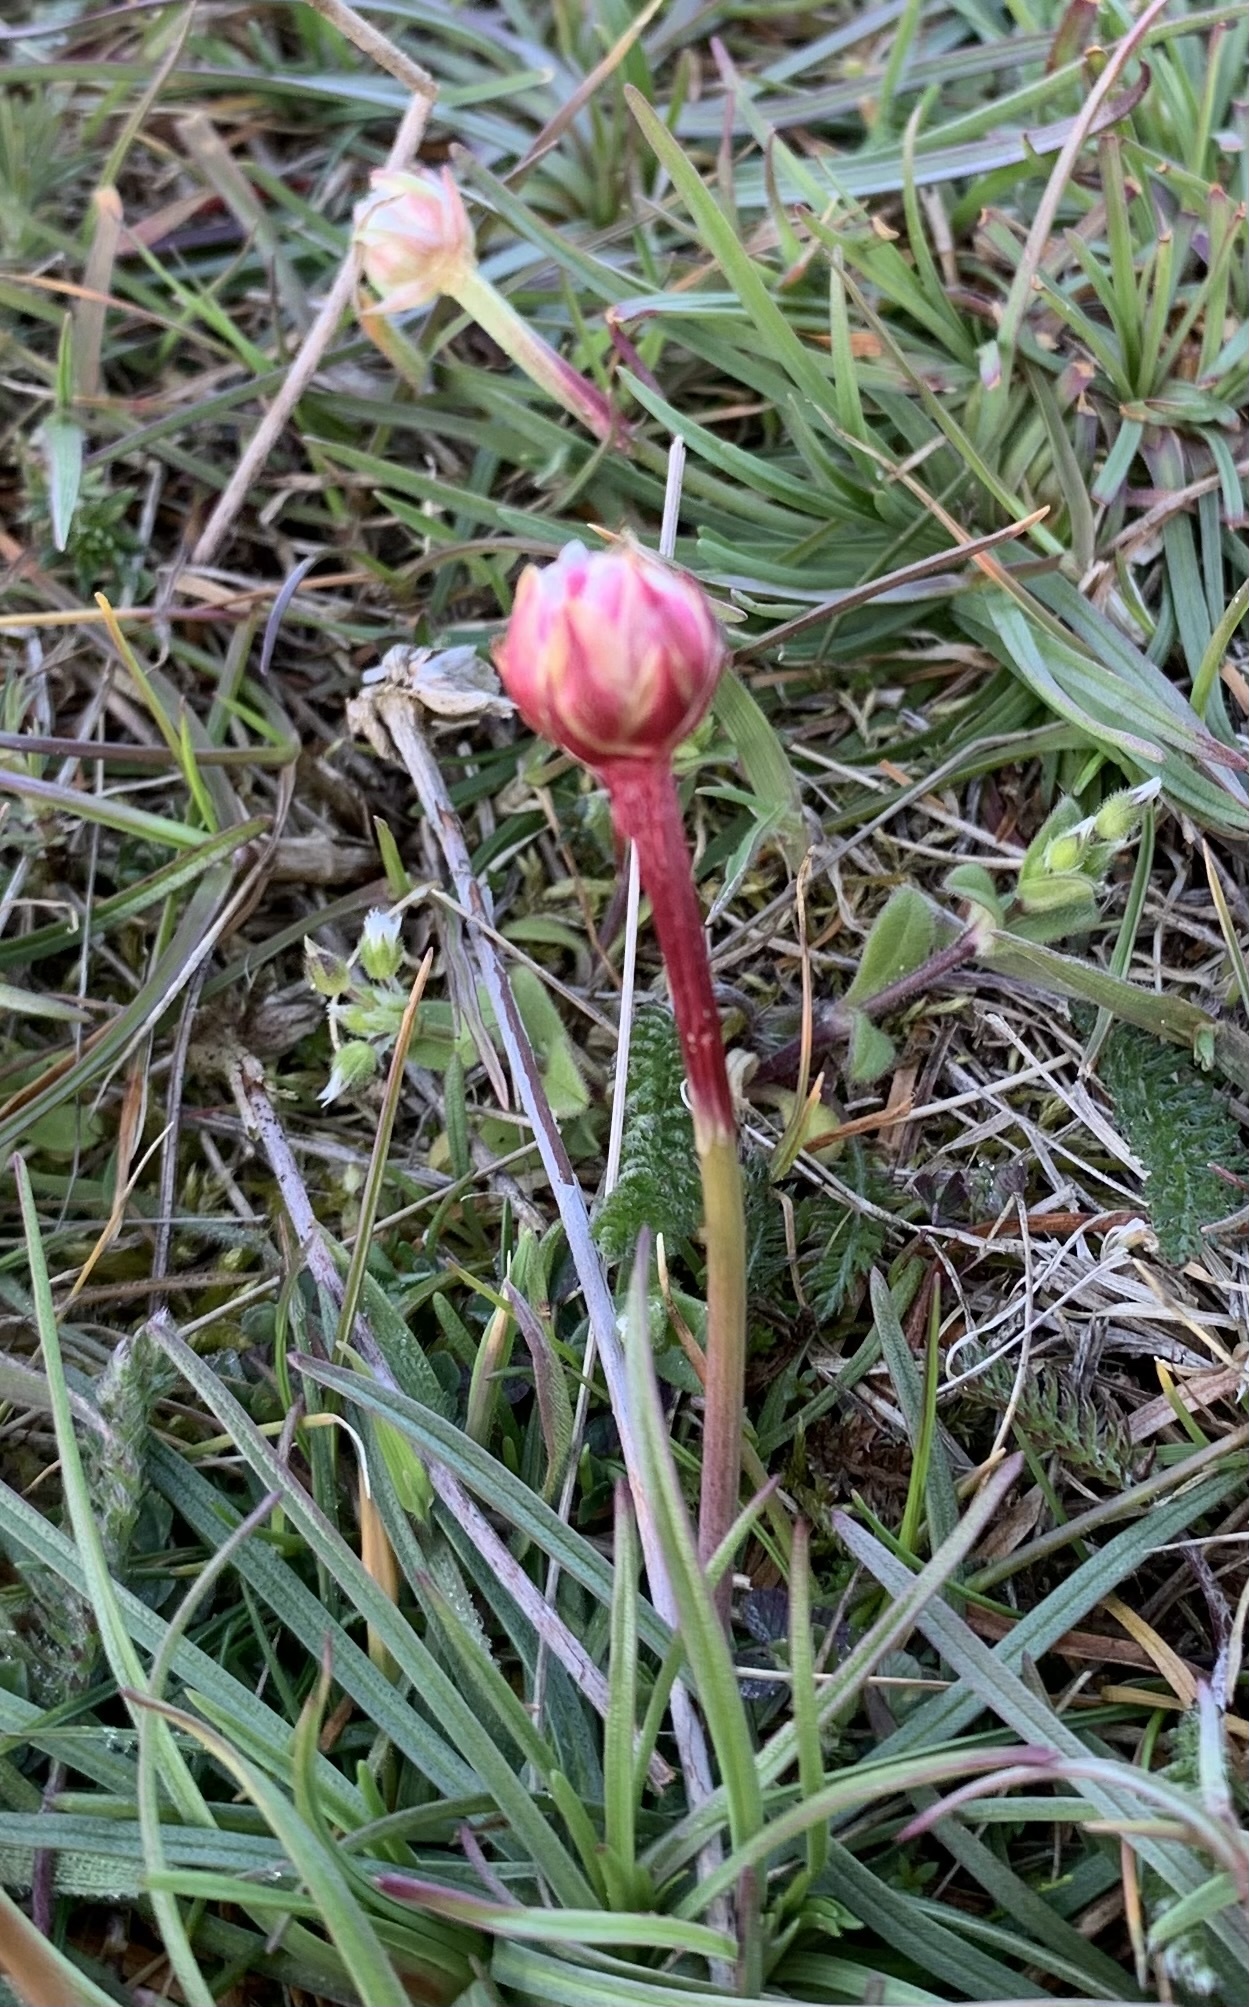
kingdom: Plantae
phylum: Tracheophyta
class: Magnoliopsida
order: Caryophyllales
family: Plumbaginaceae
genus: Armeria
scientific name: Armeria maritima
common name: Thrift
